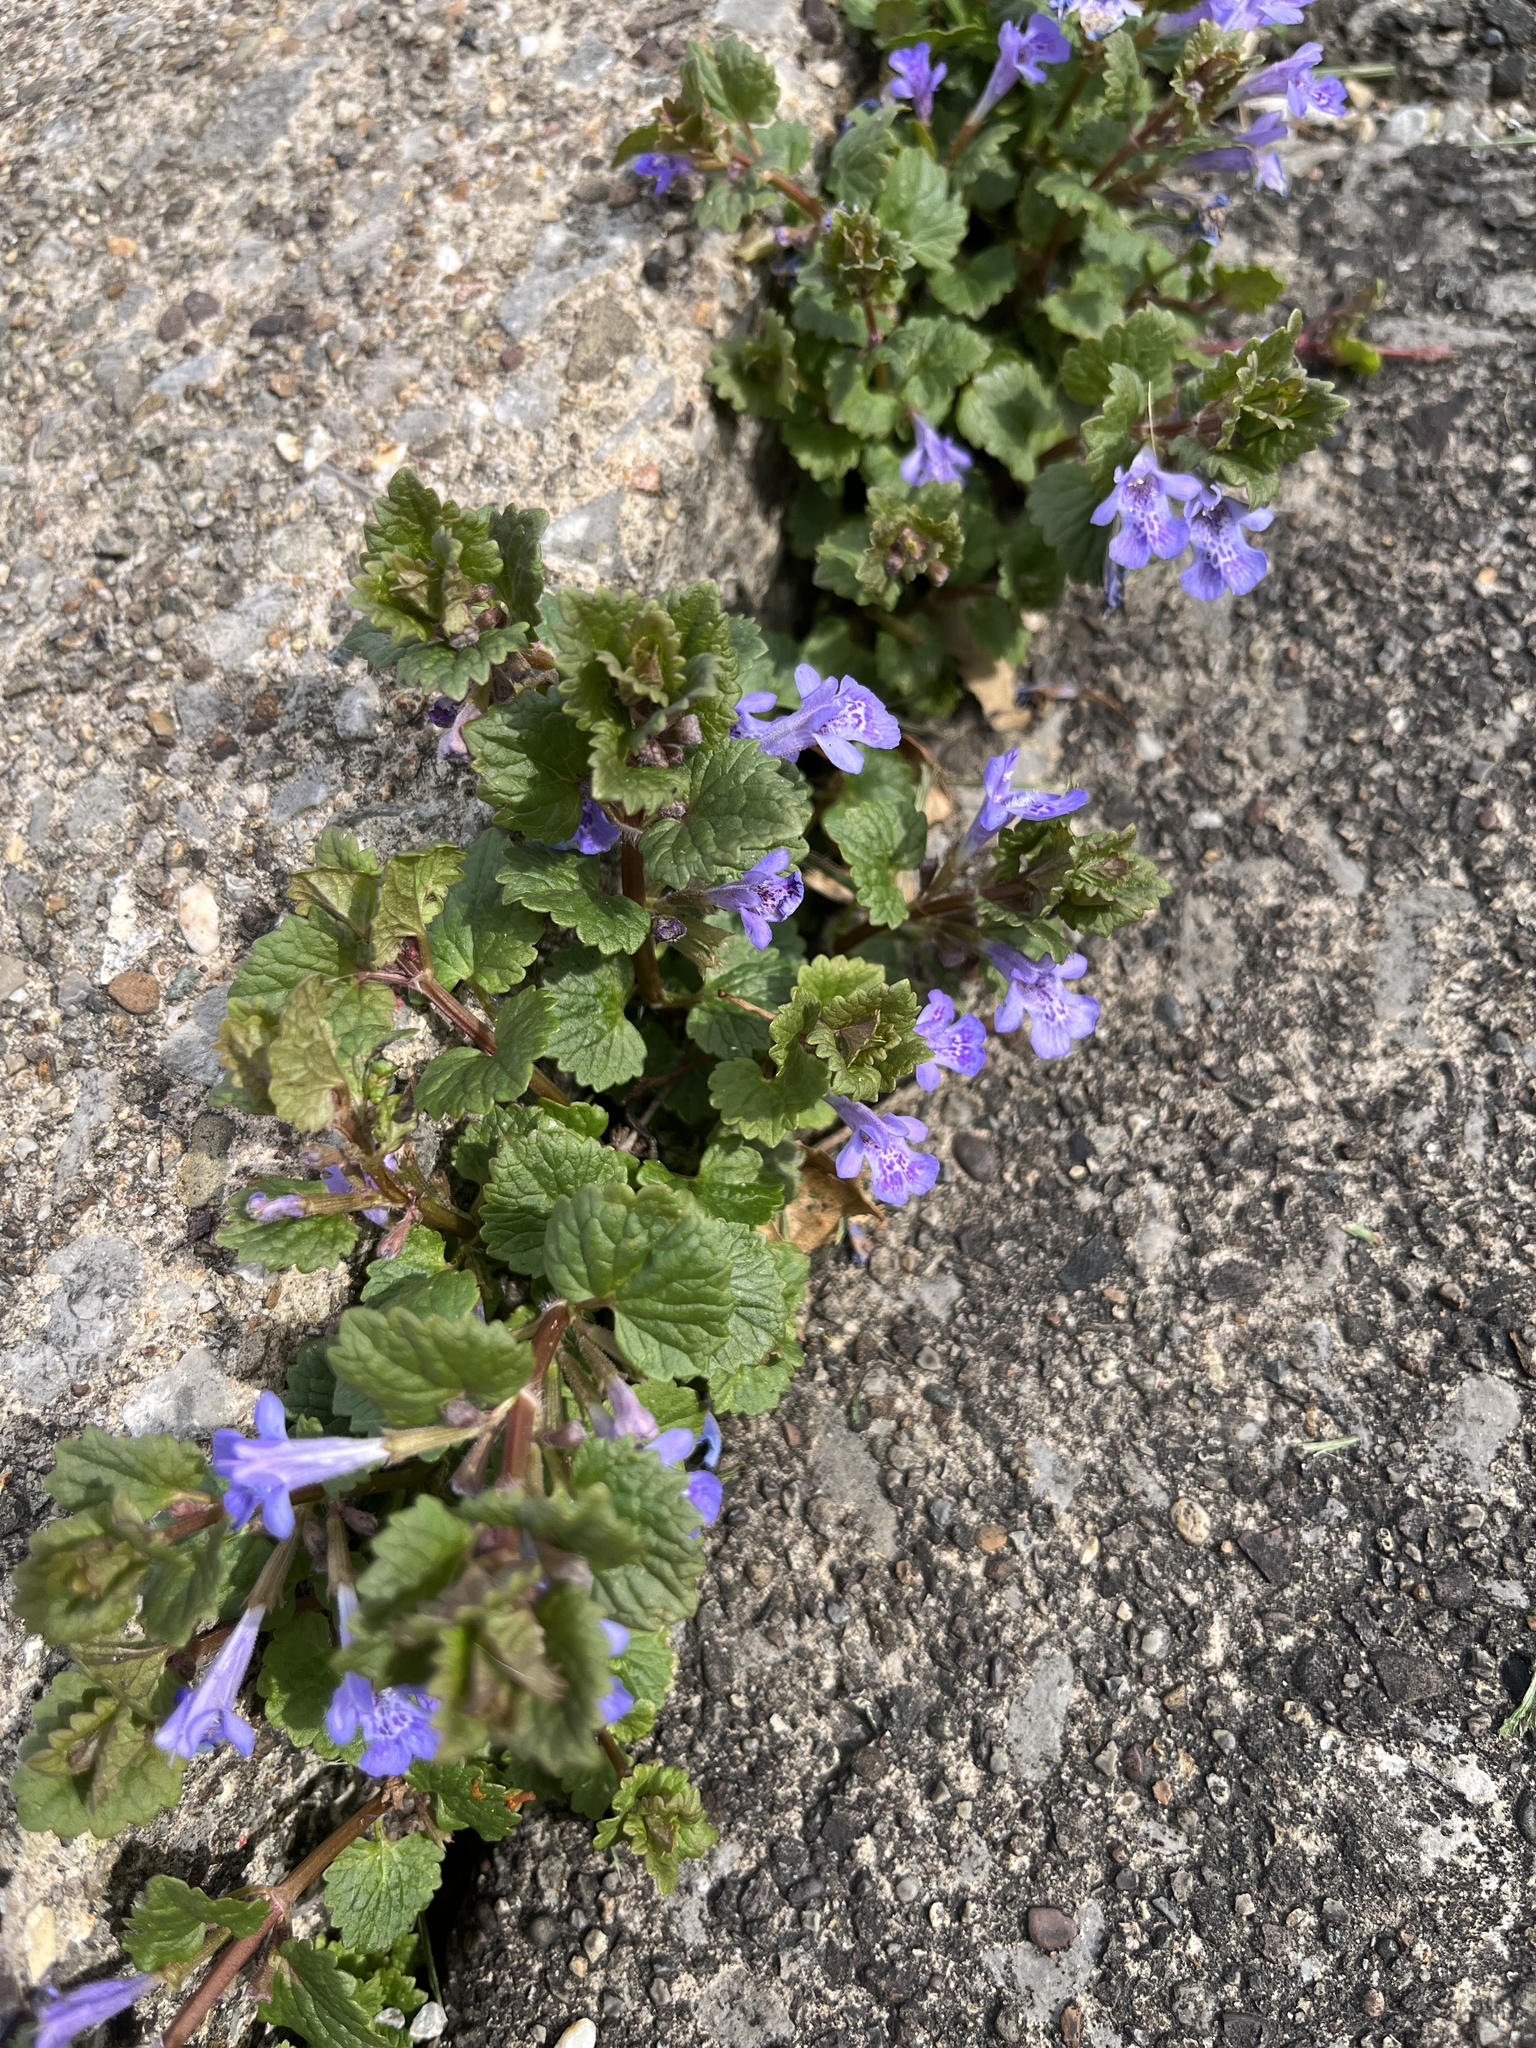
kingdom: Plantae
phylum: Tracheophyta
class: Magnoliopsida
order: Lamiales
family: Lamiaceae
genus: Glechoma
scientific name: Glechoma hederacea
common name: Ground ivy
